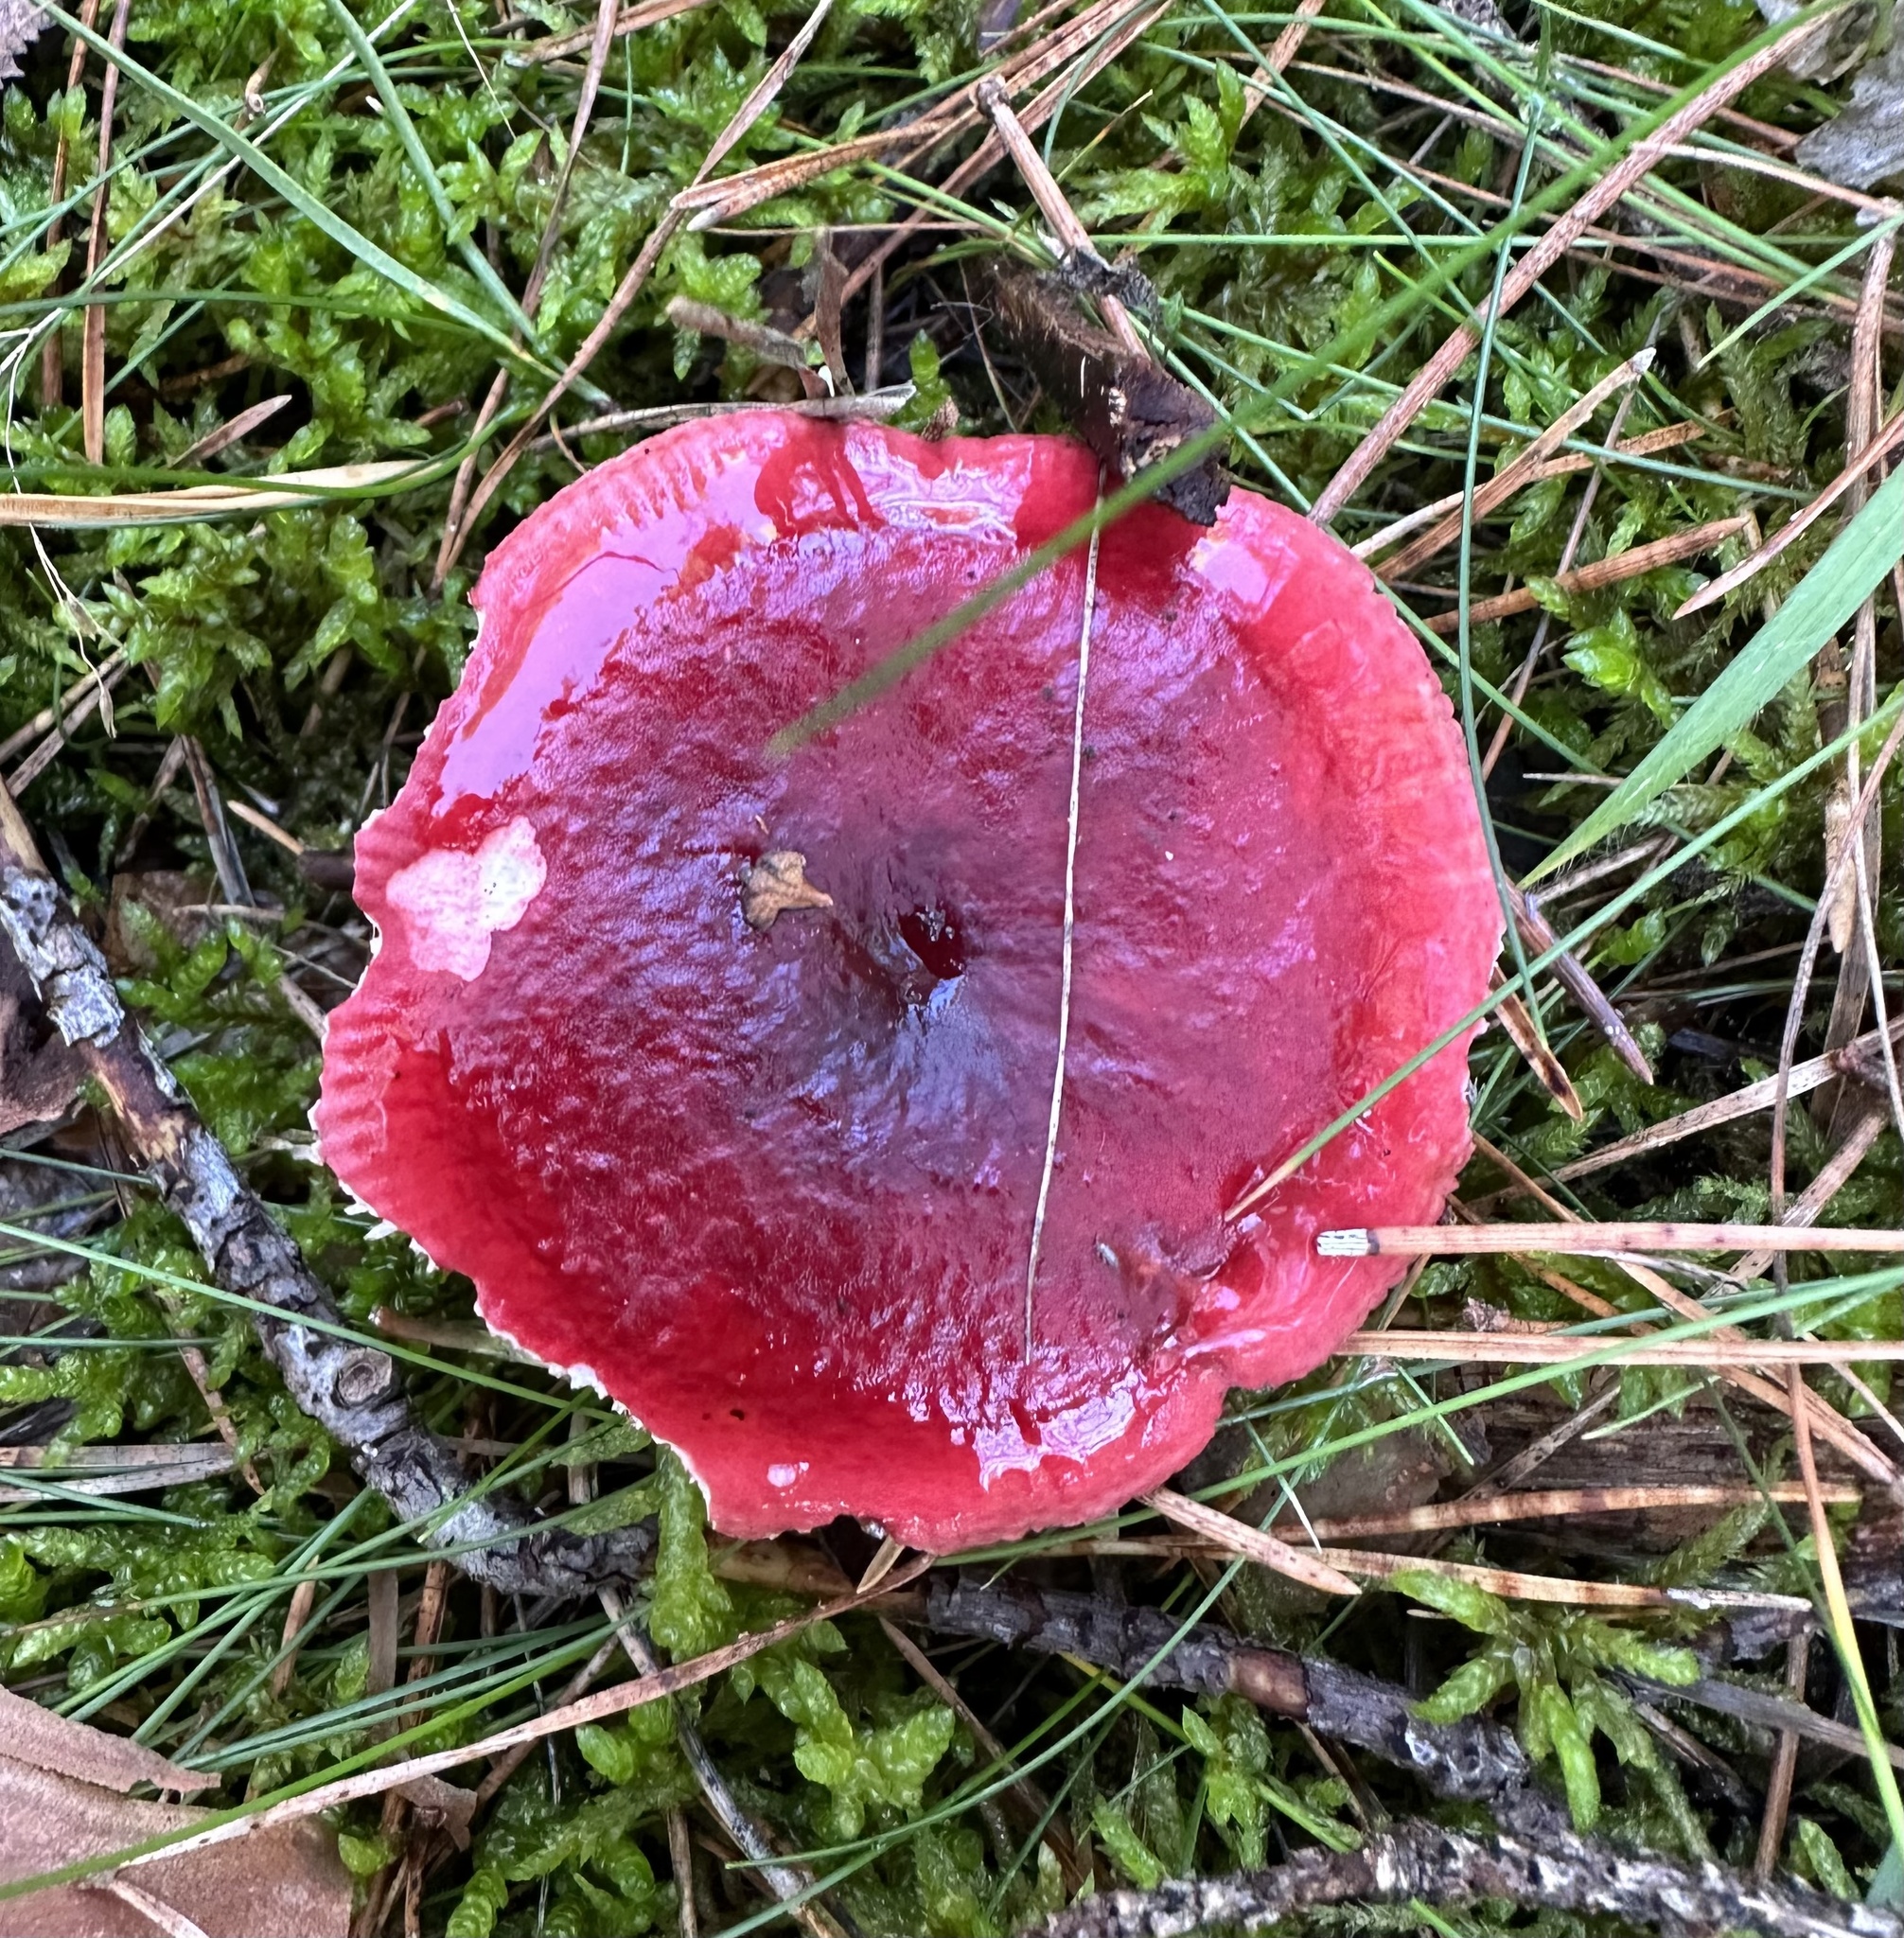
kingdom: Fungi
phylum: Basidiomycota
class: Agaricomycetes
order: Russulales
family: Russulaceae
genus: Russula
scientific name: Russula sanguinea
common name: Bloody brittlegill
